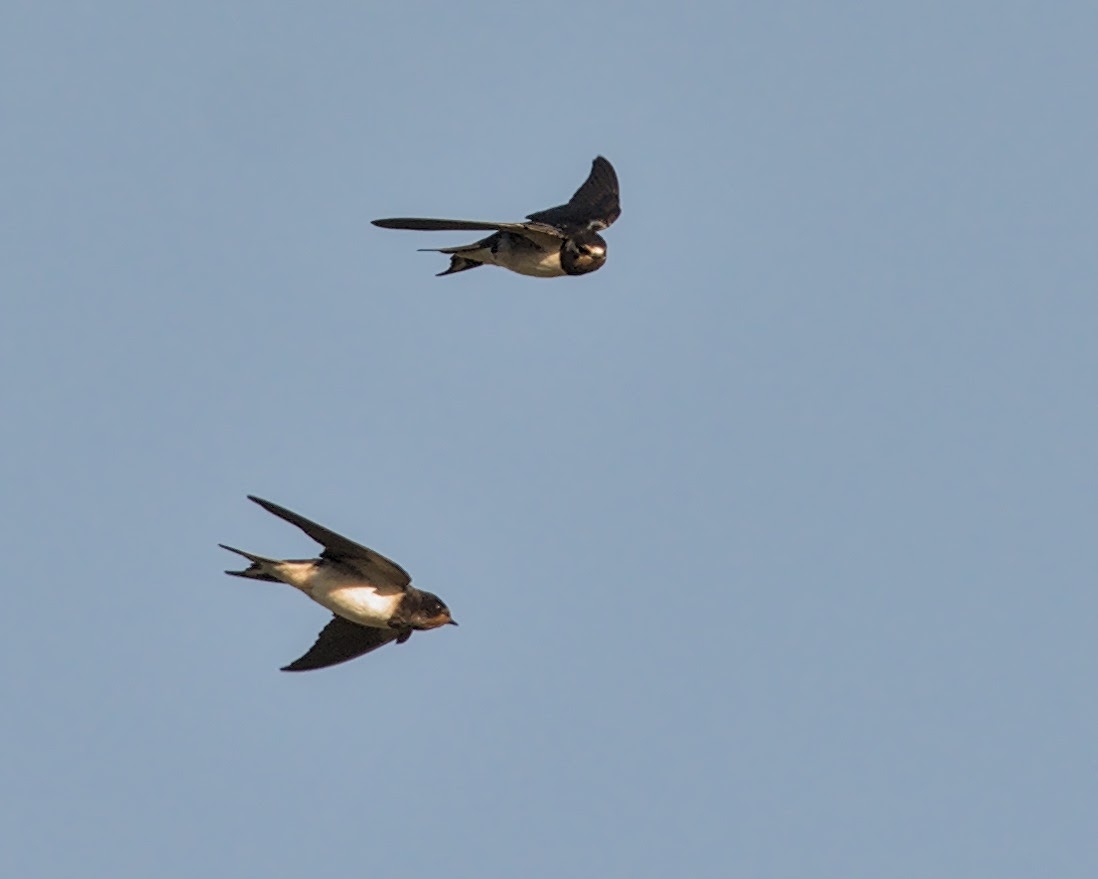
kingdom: Animalia
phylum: Chordata
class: Aves
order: Passeriformes
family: Hirundinidae
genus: Hirundo
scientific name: Hirundo rustica
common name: Barn swallow
